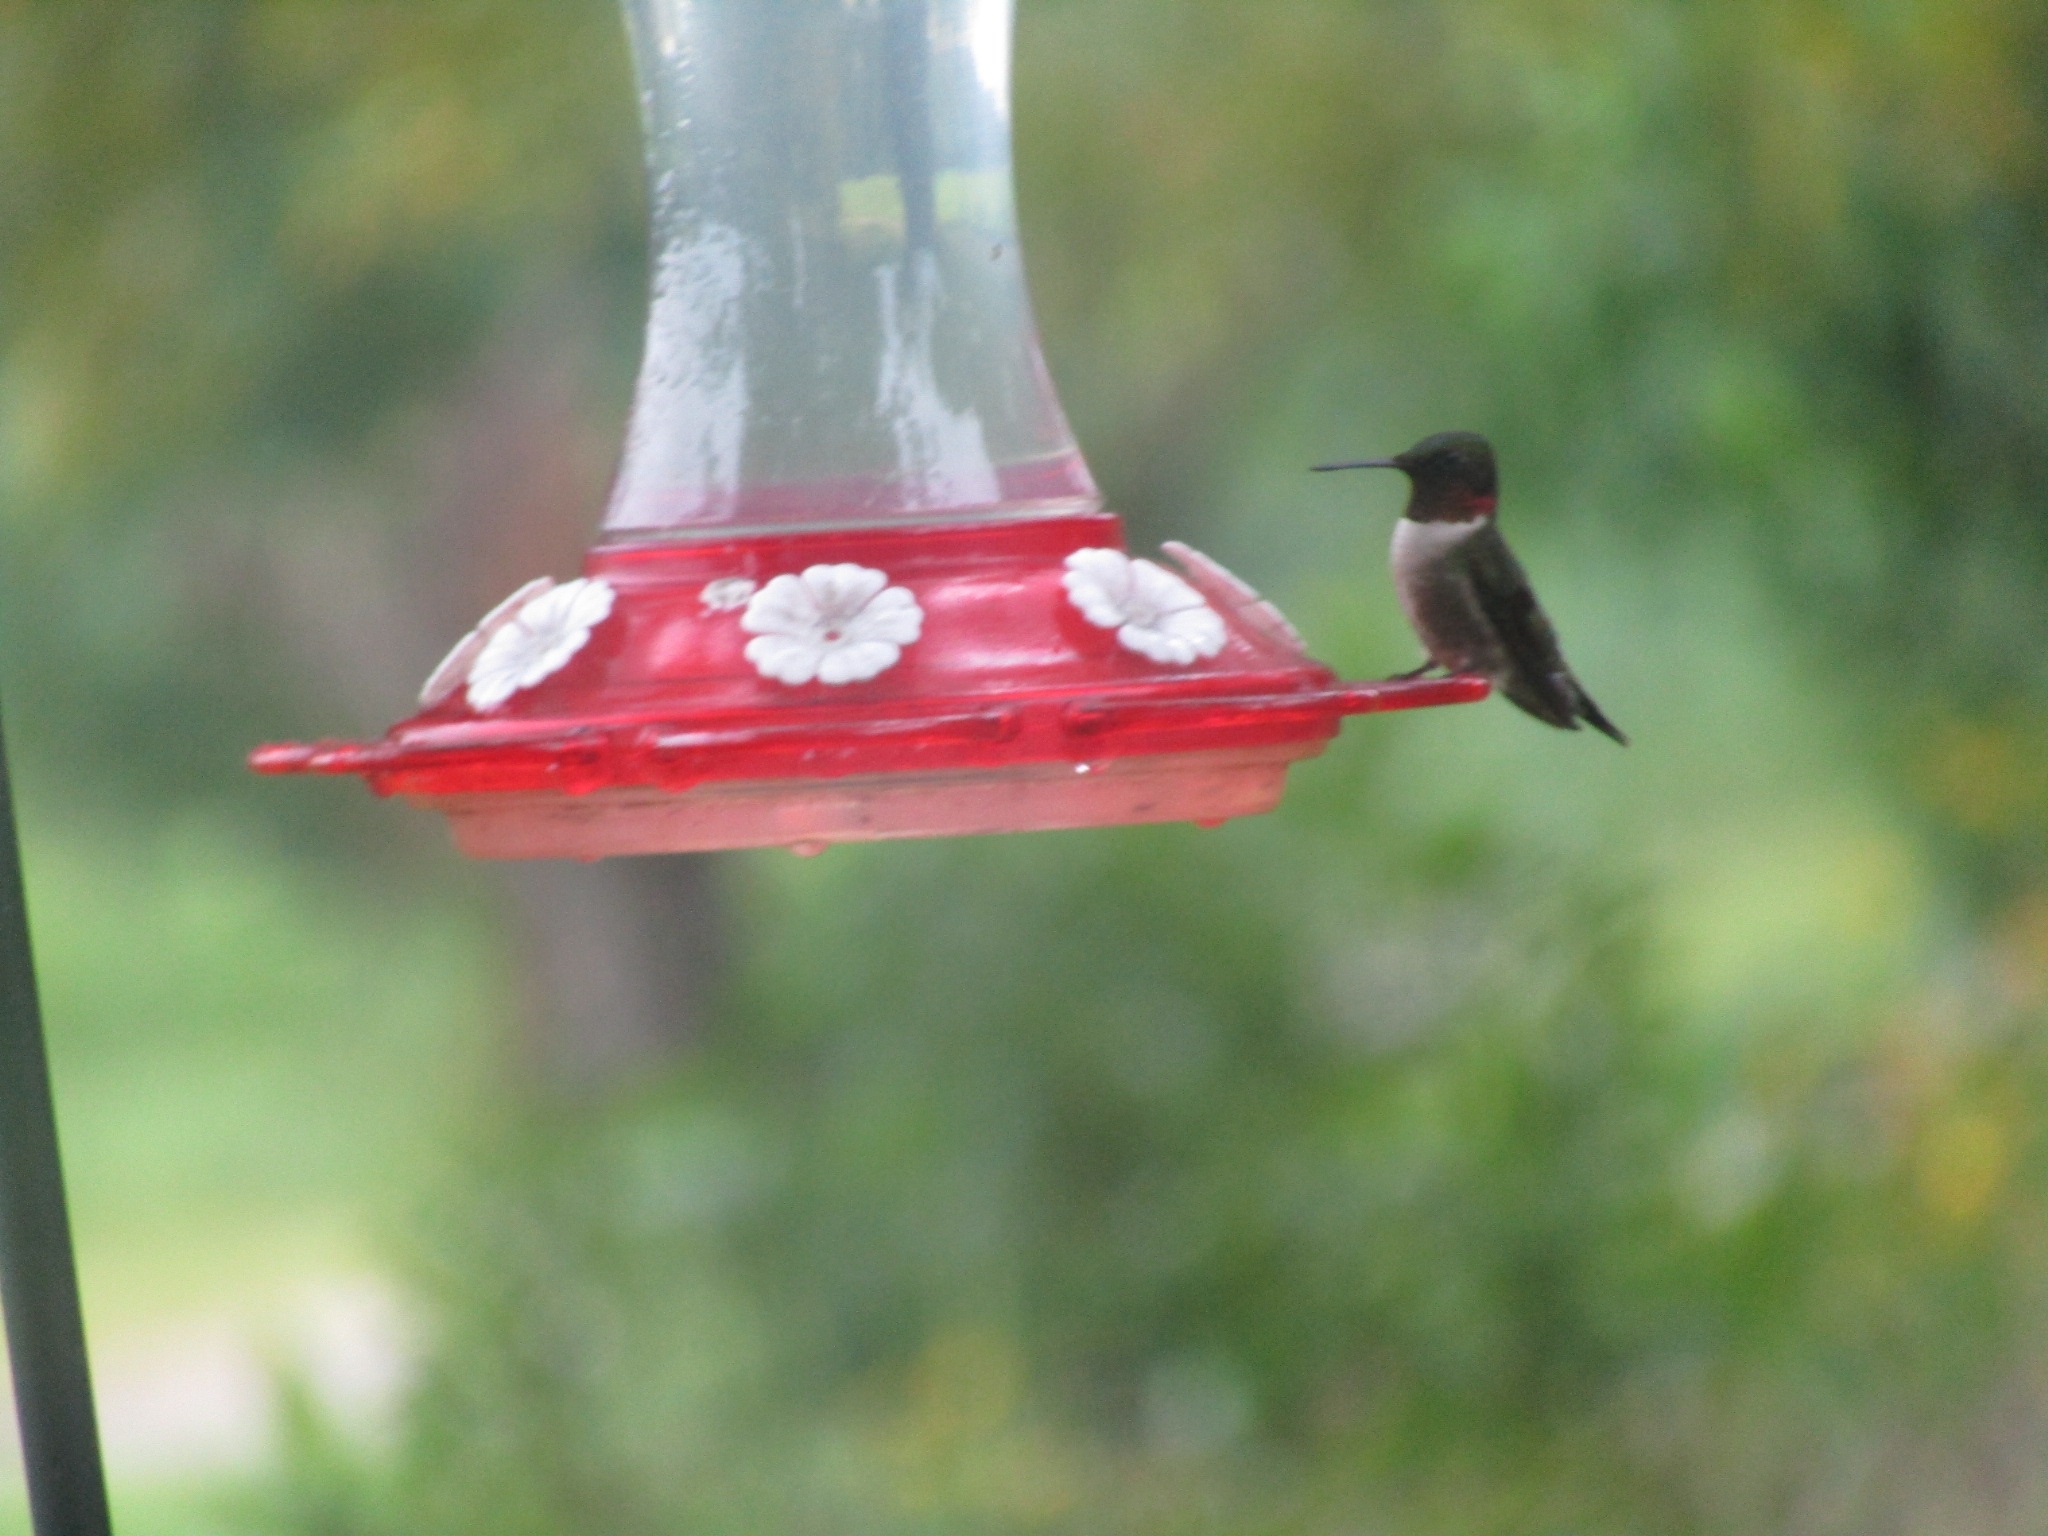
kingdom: Animalia
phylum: Chordata
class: Aves
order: Apodiformes
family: Trochilidae
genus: Archilochus
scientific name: Archilochus colubris
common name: Ruby-throated hummingbird
